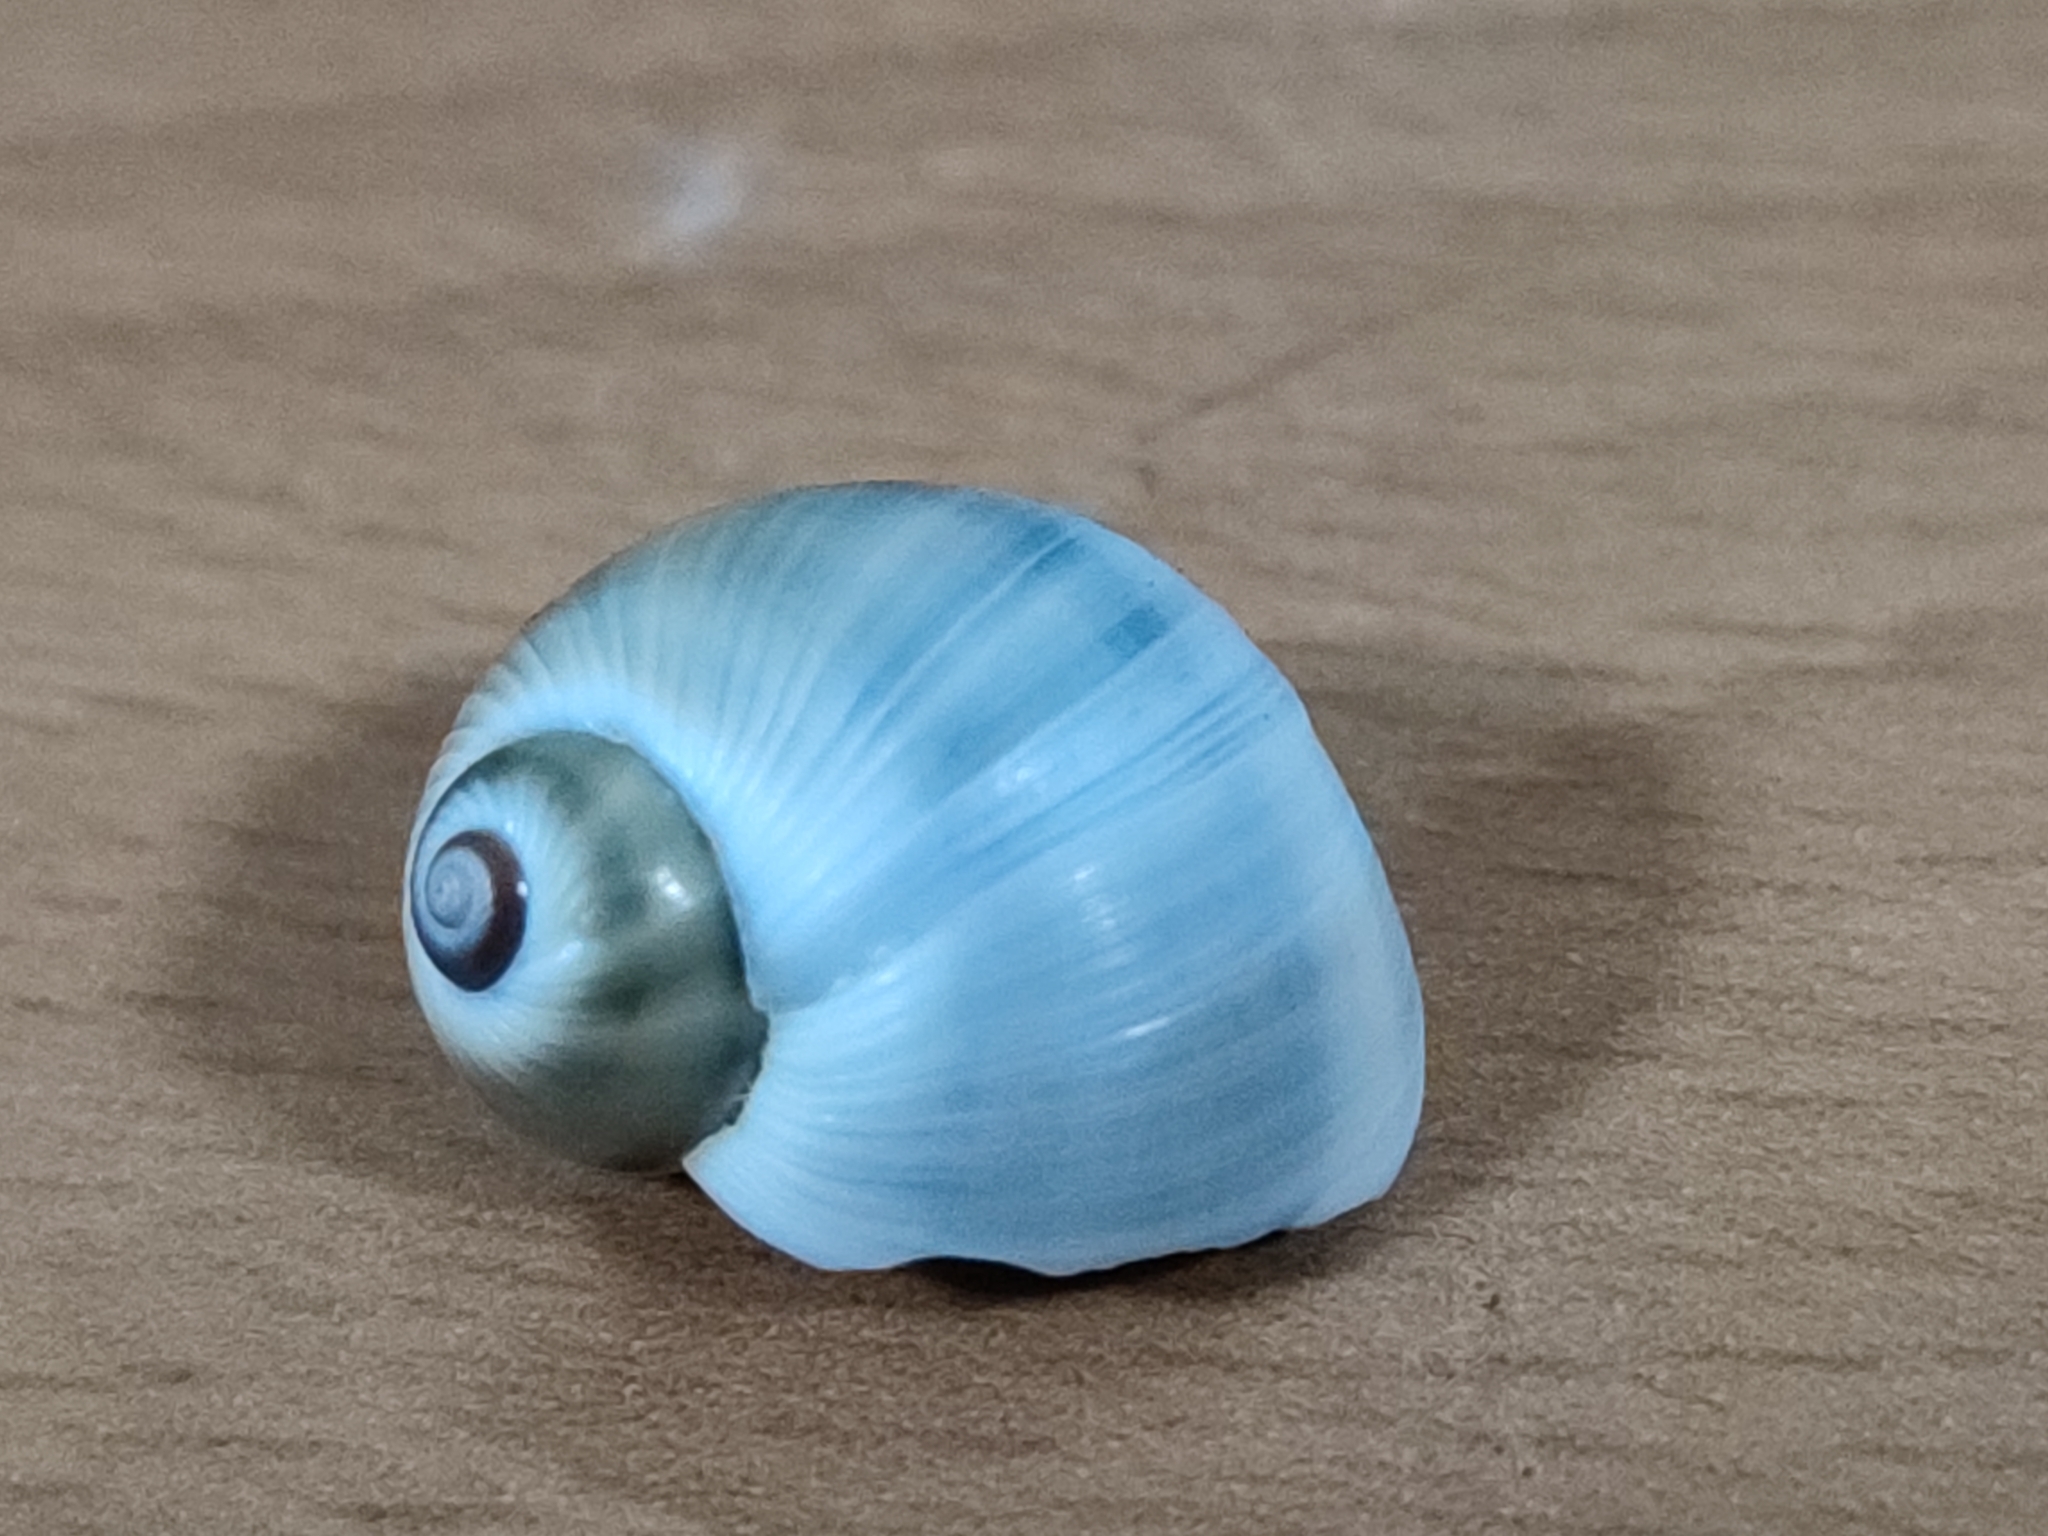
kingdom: Animalia
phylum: Mollusca
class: Gastropoda
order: Littorinimorpha
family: Naticidae
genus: Notocochlis
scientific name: Notocochlis gualteriana
